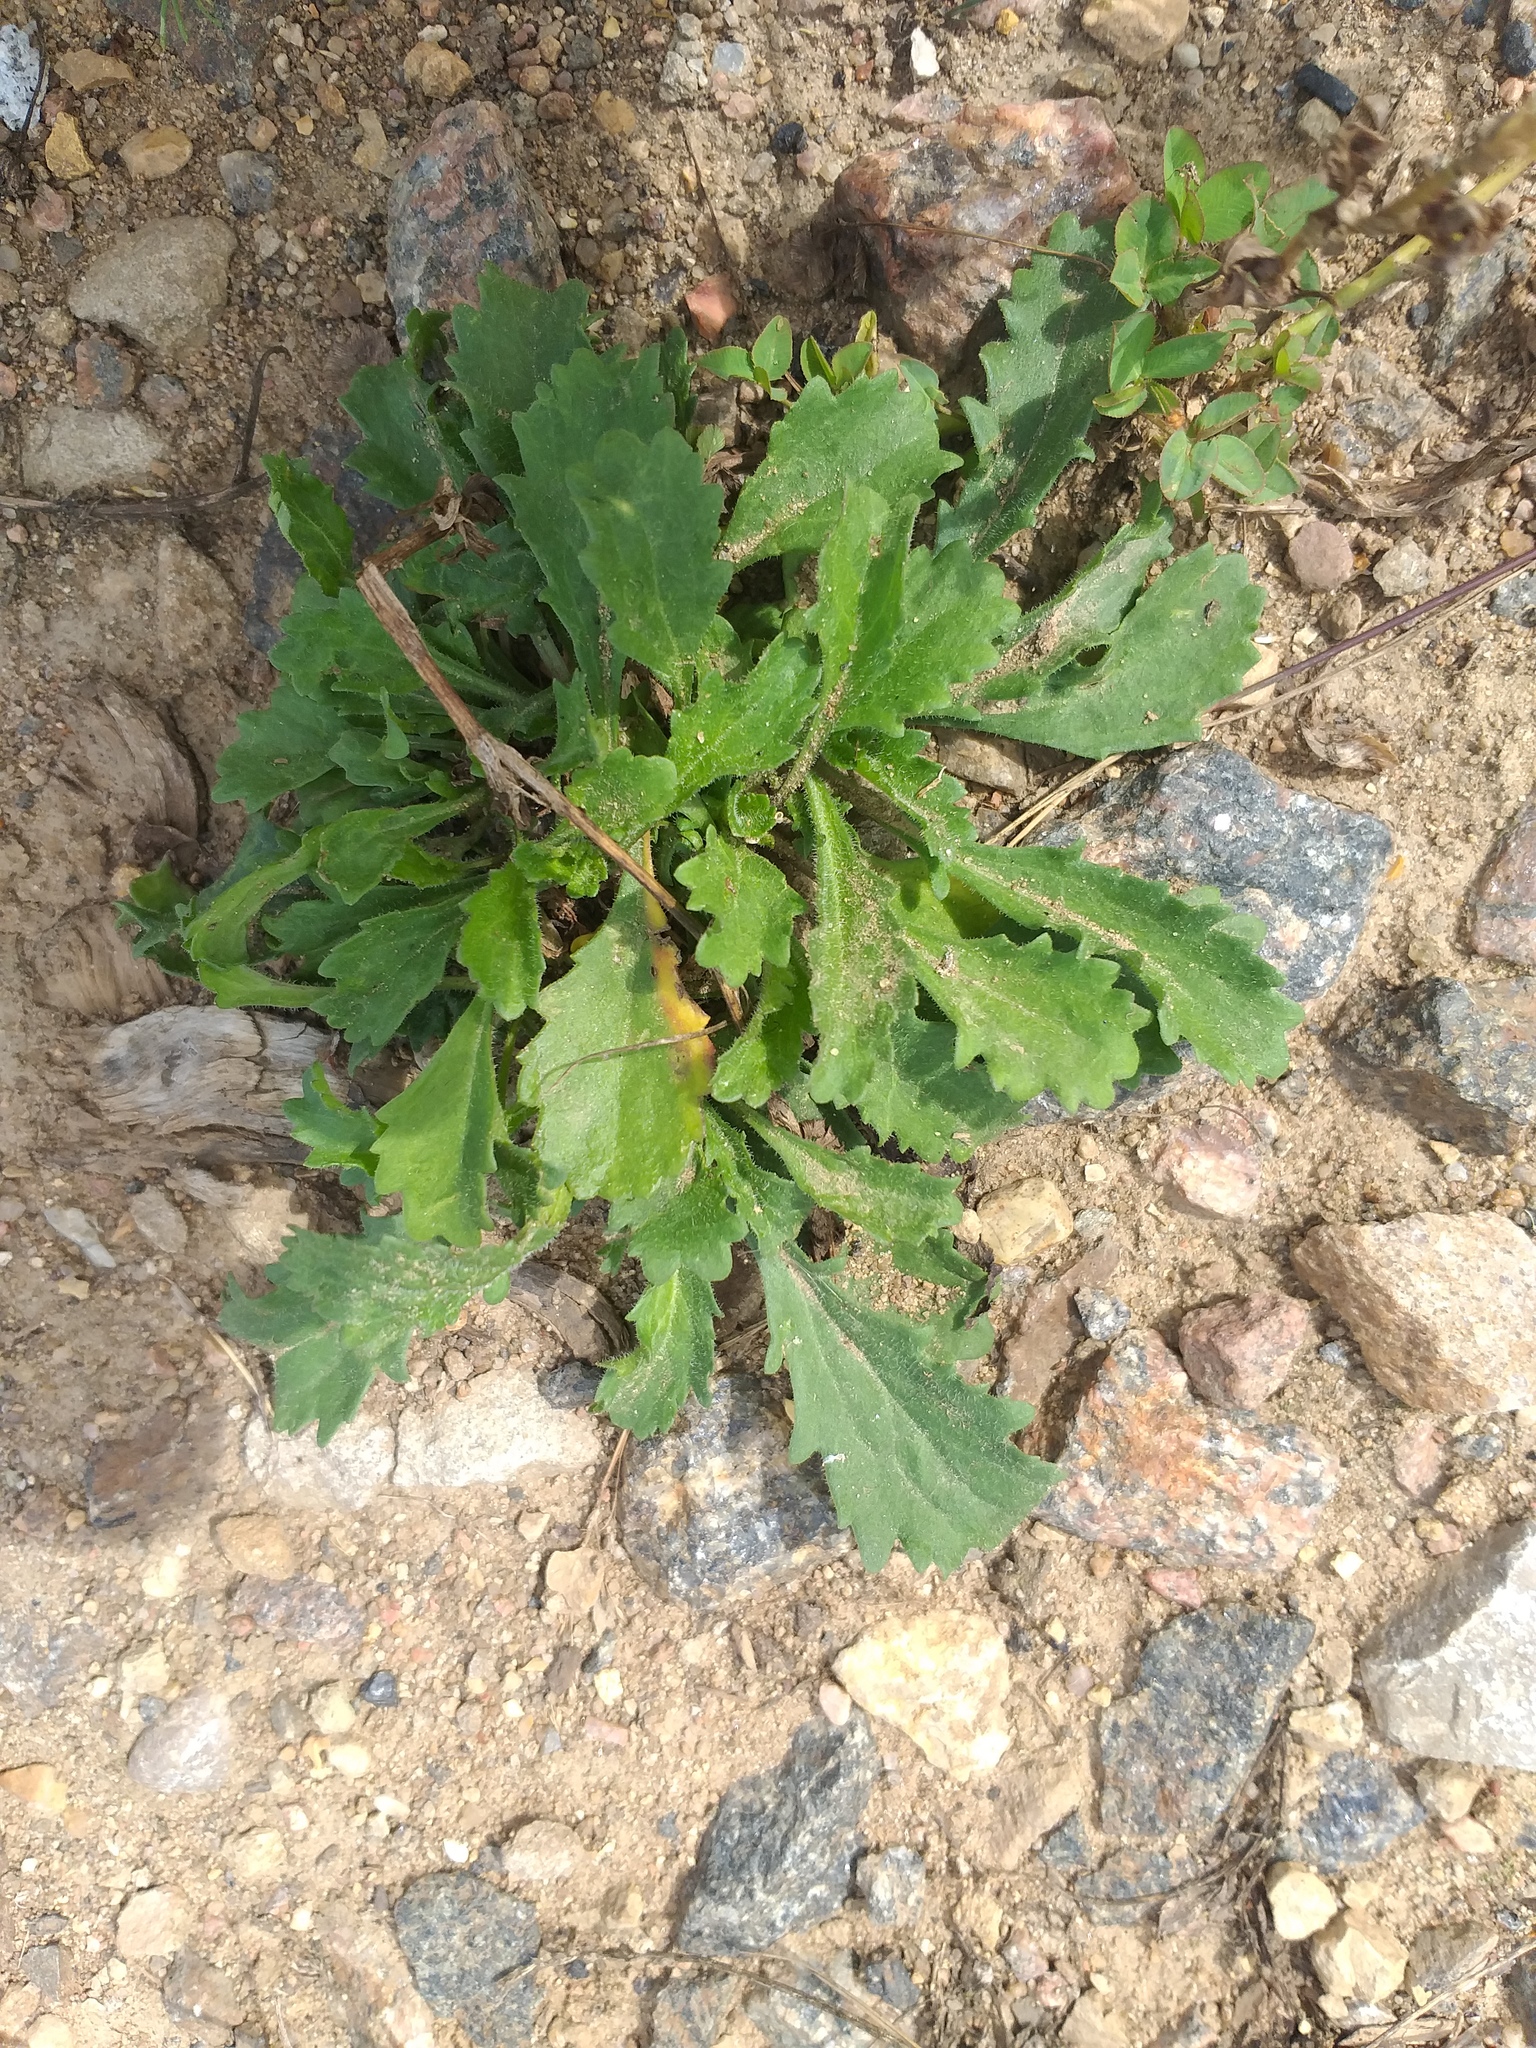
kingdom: Plantae
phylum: Tracheophyta
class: Magnoliopsida
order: Asterales
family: Asteraceae
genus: Leucanthemum
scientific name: Leucanthemum vulgare
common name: Oxeye daisy
